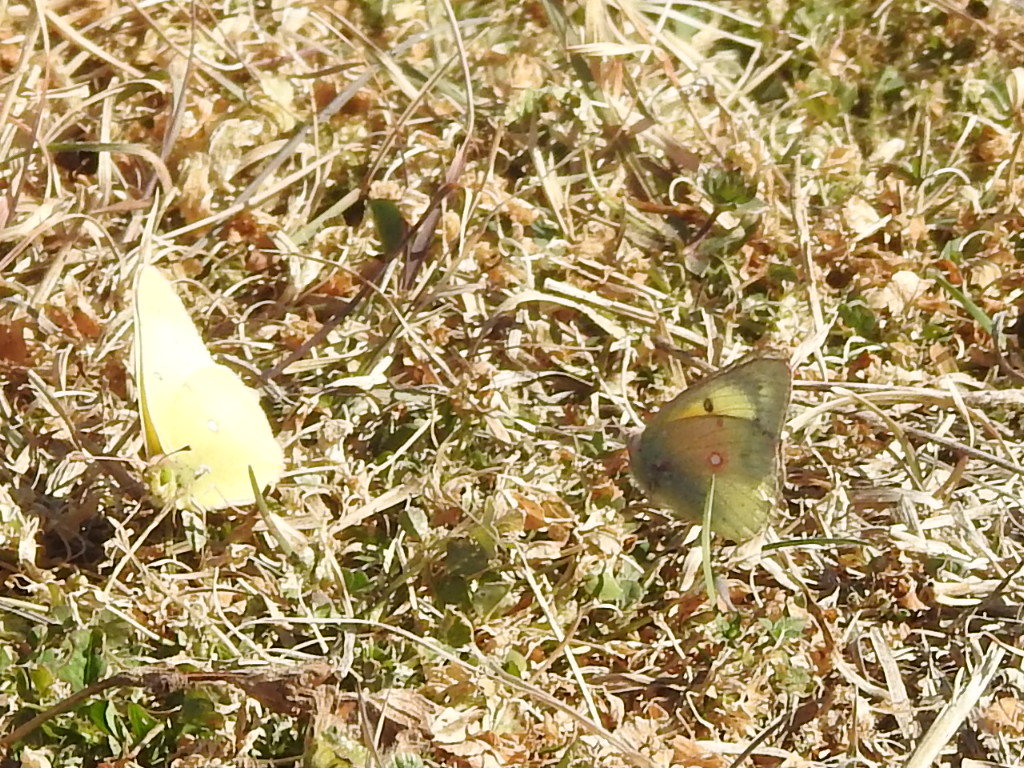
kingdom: Animalia
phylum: Arthropoda
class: Insecta
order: Lepidoptera
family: Pieridae
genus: Colias
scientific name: Colias eurytheme
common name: Alfalfa butterfly
